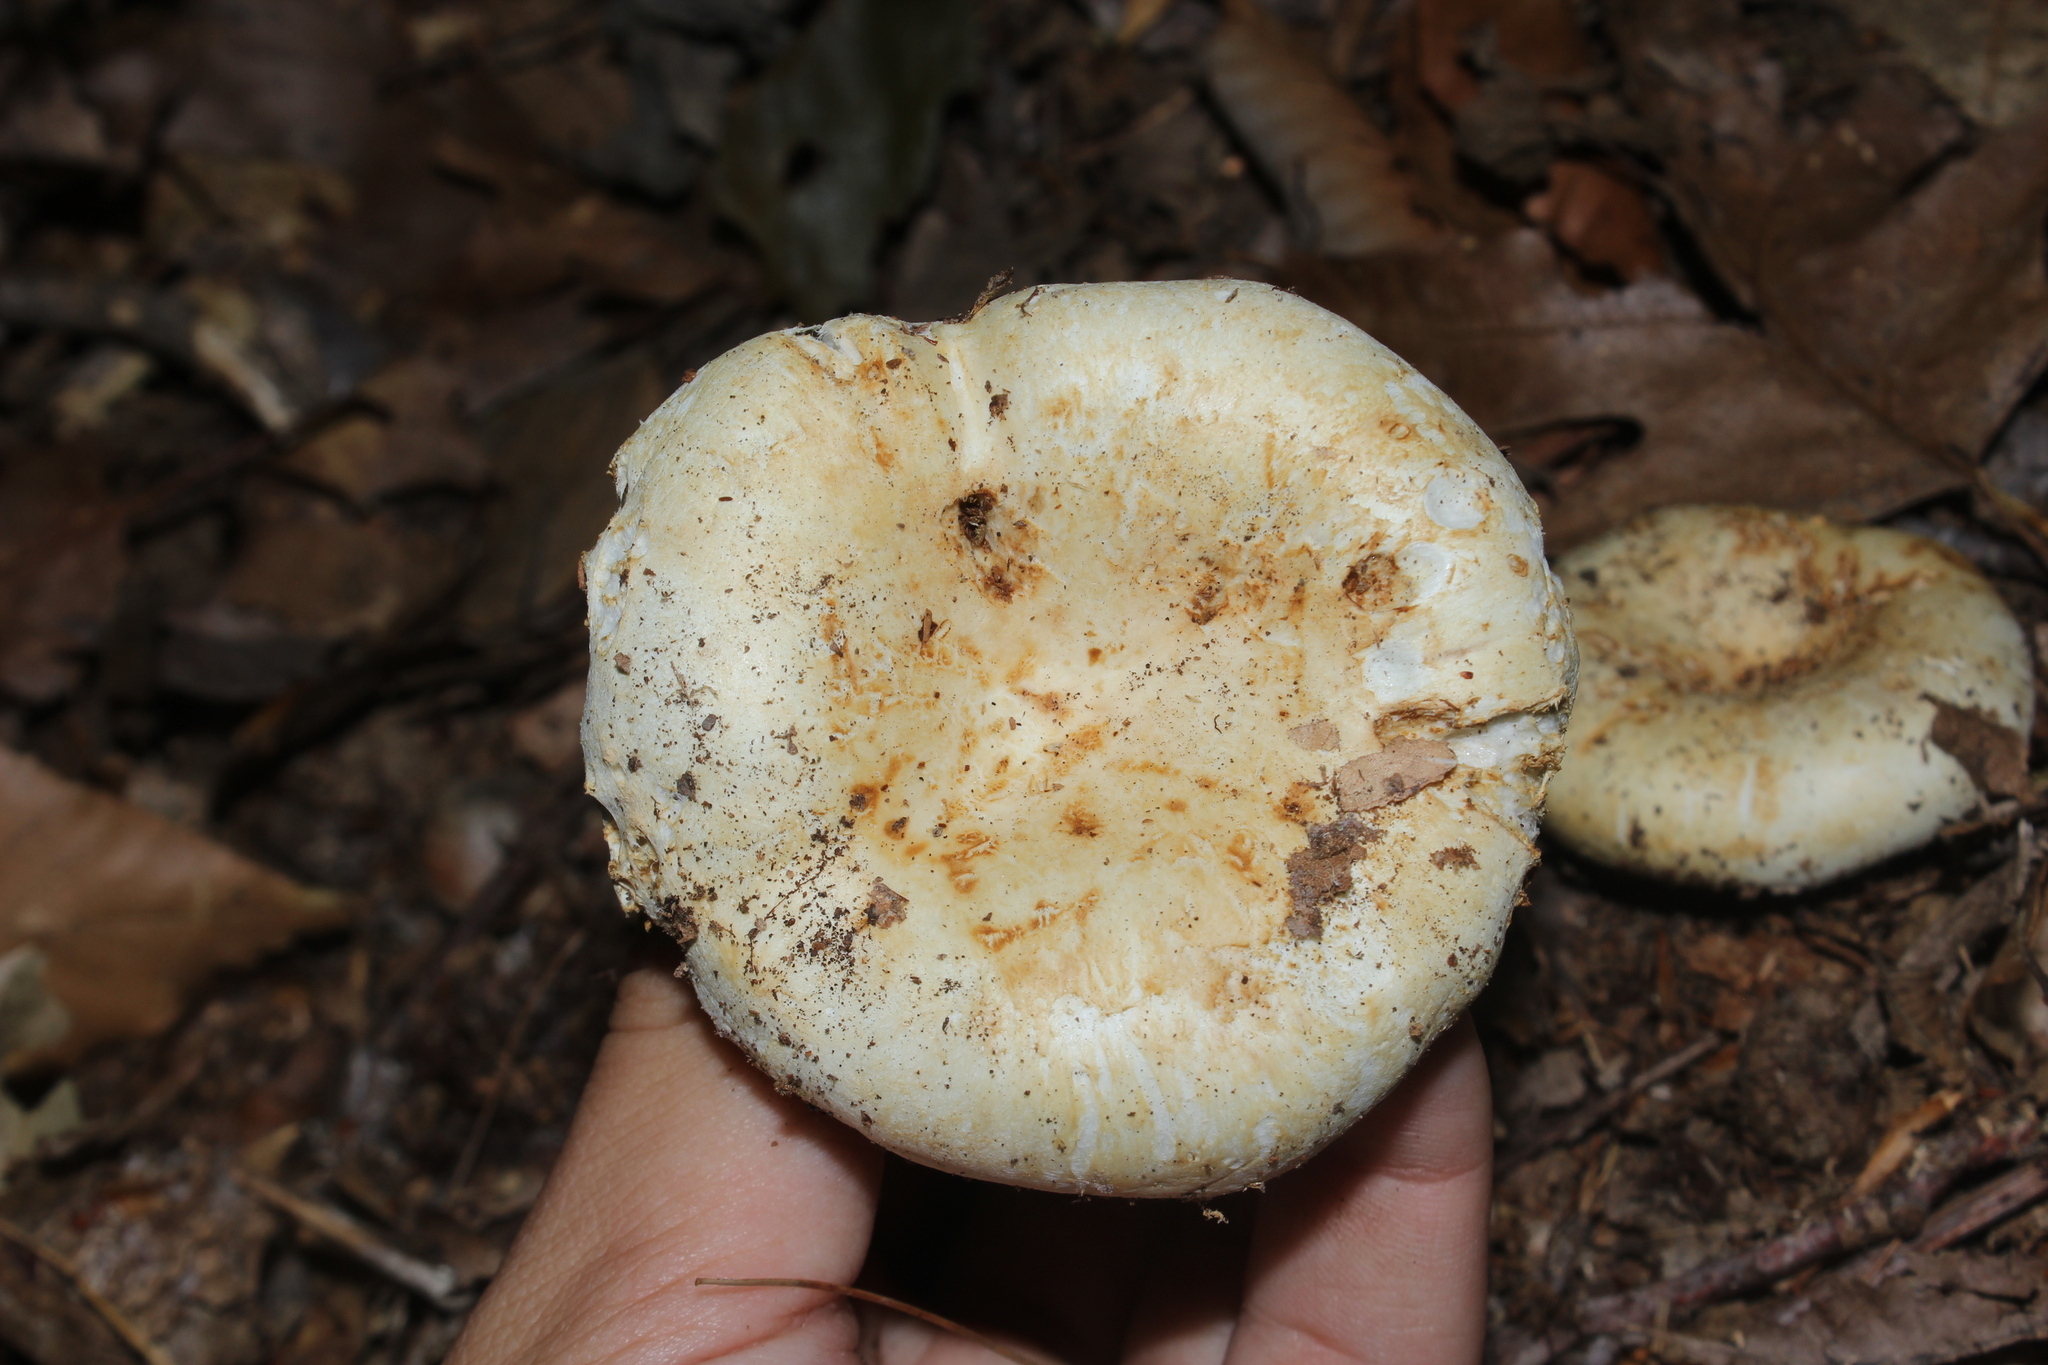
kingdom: Fungi
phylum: Basidiomycota
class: Agaricomycetes
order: Russulales
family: Russulaceae
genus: Lactifluus
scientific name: Lactifluus
